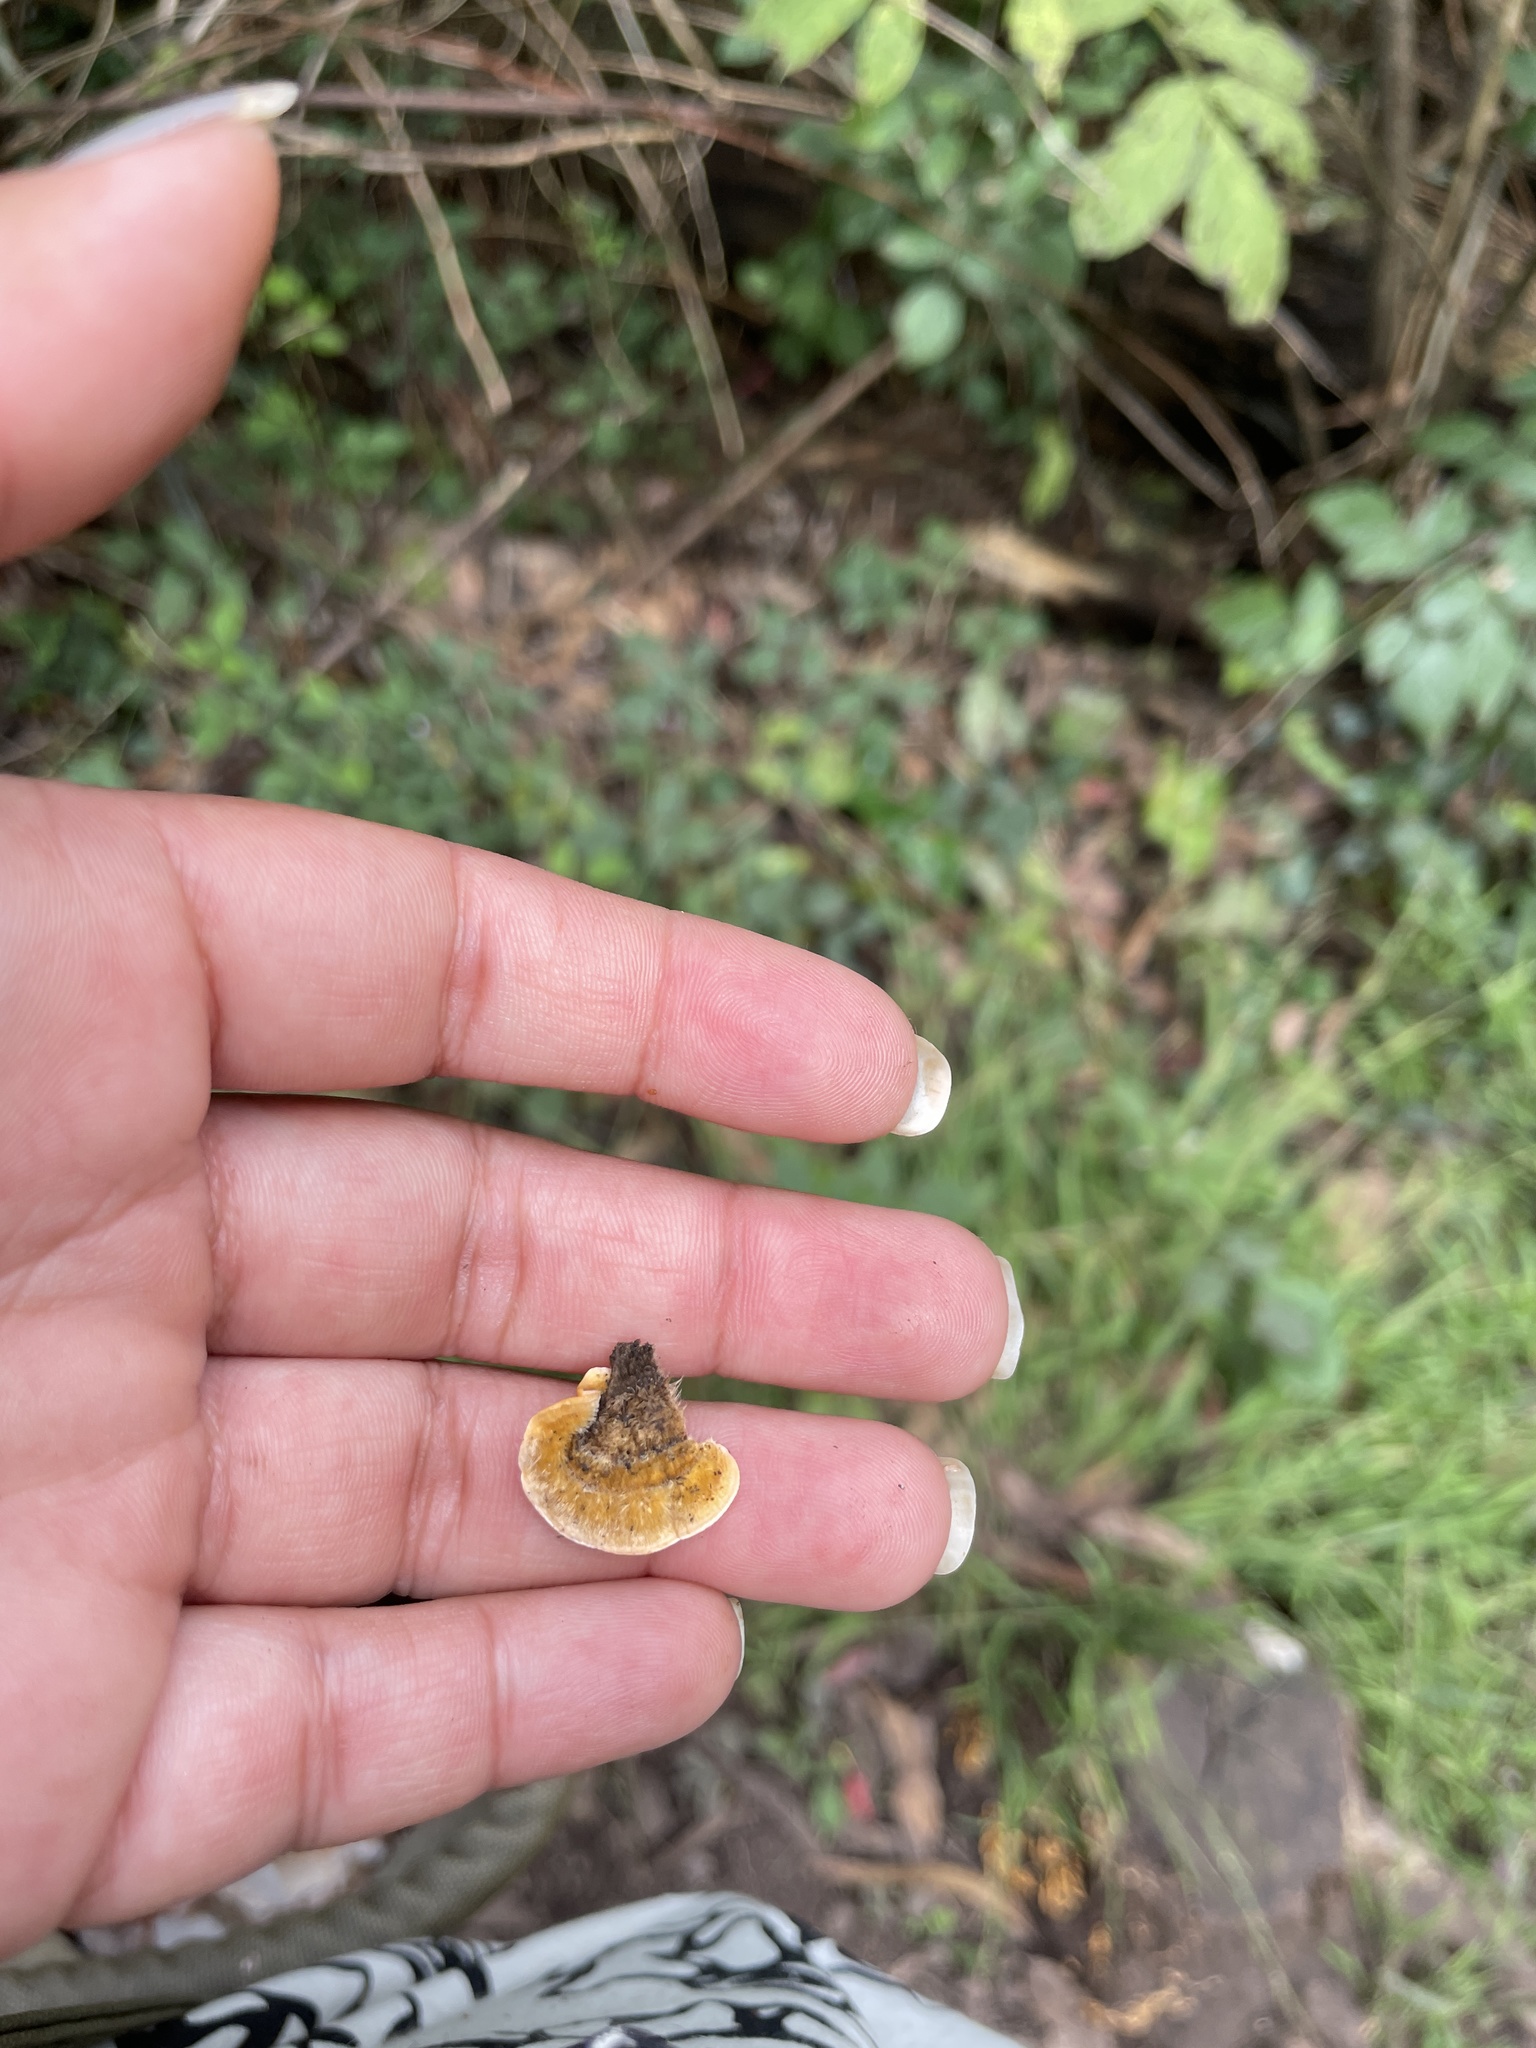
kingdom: Fungi
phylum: Basidiomycota
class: Agaricomycetes
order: Russulales
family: Stereaceae
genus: Stereum
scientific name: Stereum hirsutum
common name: Hairy curtain crust
